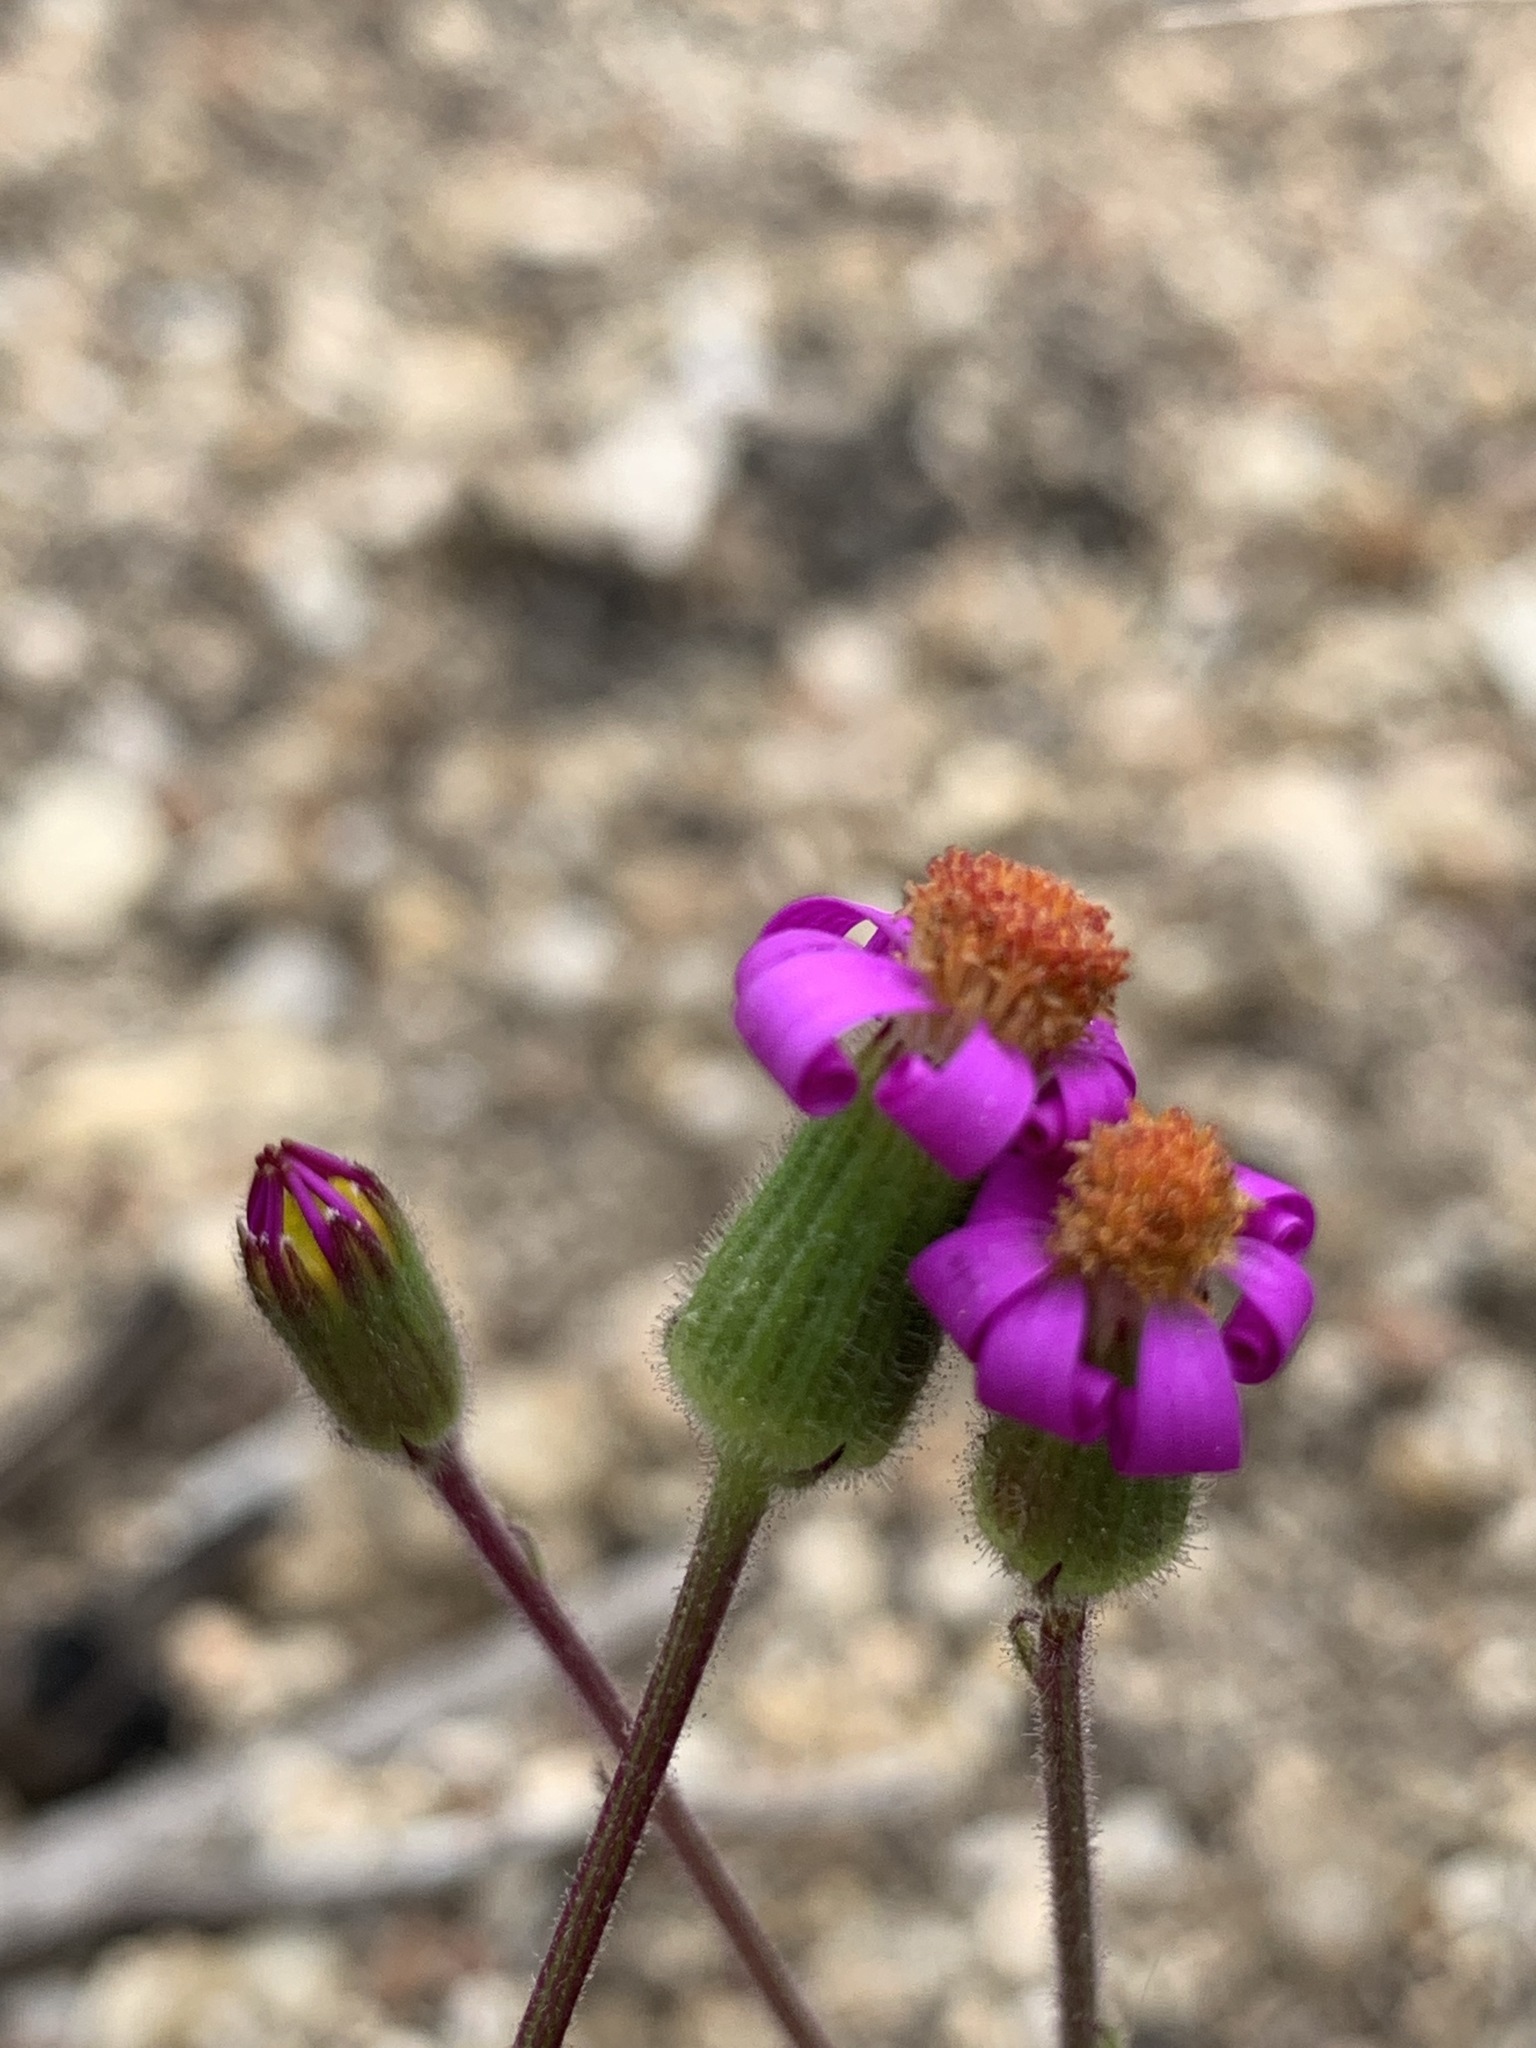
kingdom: Plantae
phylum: Tracheophyta
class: Magnoliopsida
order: Asterales
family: Asteraceae
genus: Senecio
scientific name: Senecio arenarius
